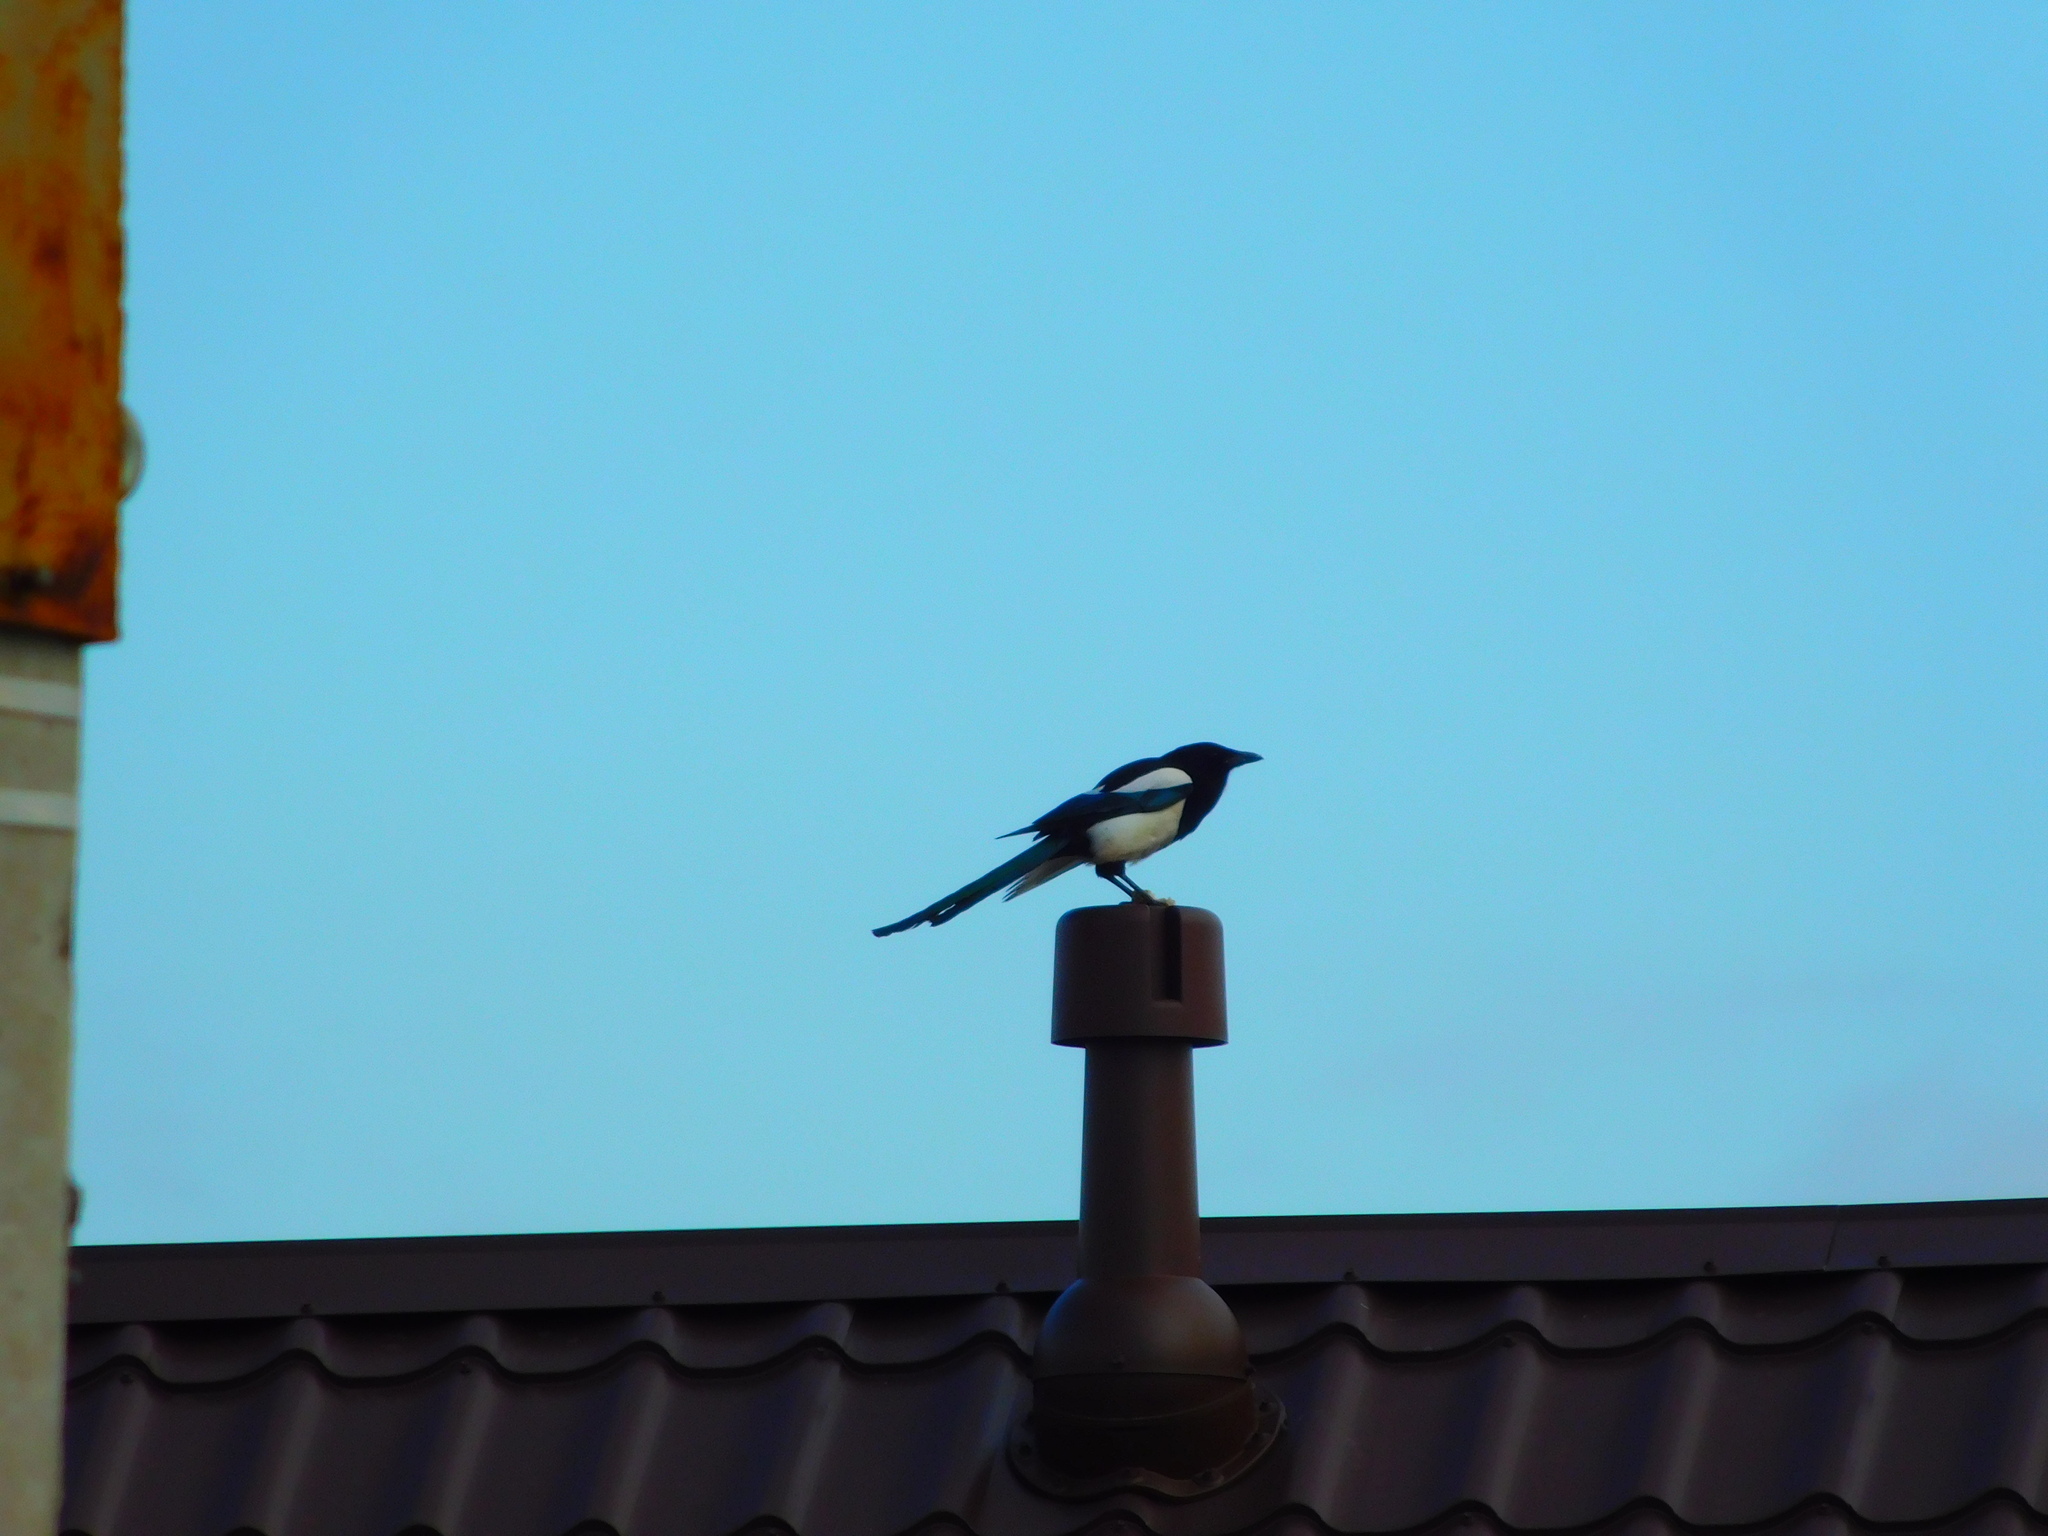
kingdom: Animalia
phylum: Chordata
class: Aves
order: Passeriformes
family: Corvidae
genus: Pica
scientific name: Pica pica
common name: Eurasian magpie
